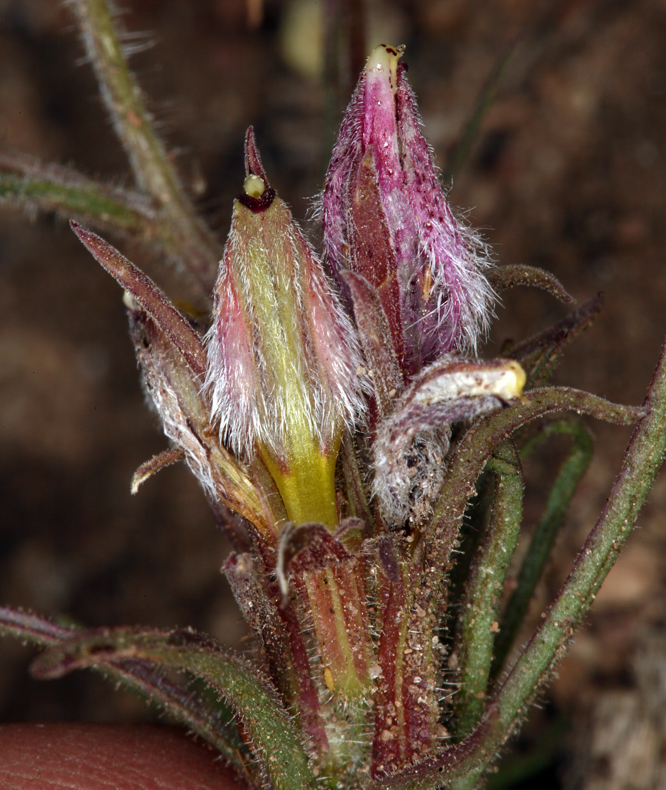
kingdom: Plantae
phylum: Tracheophyta
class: Magnoliopsida
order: Lamiales
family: Orobanchaceae
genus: Cordylanthus
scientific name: Cordylanthus kingii
